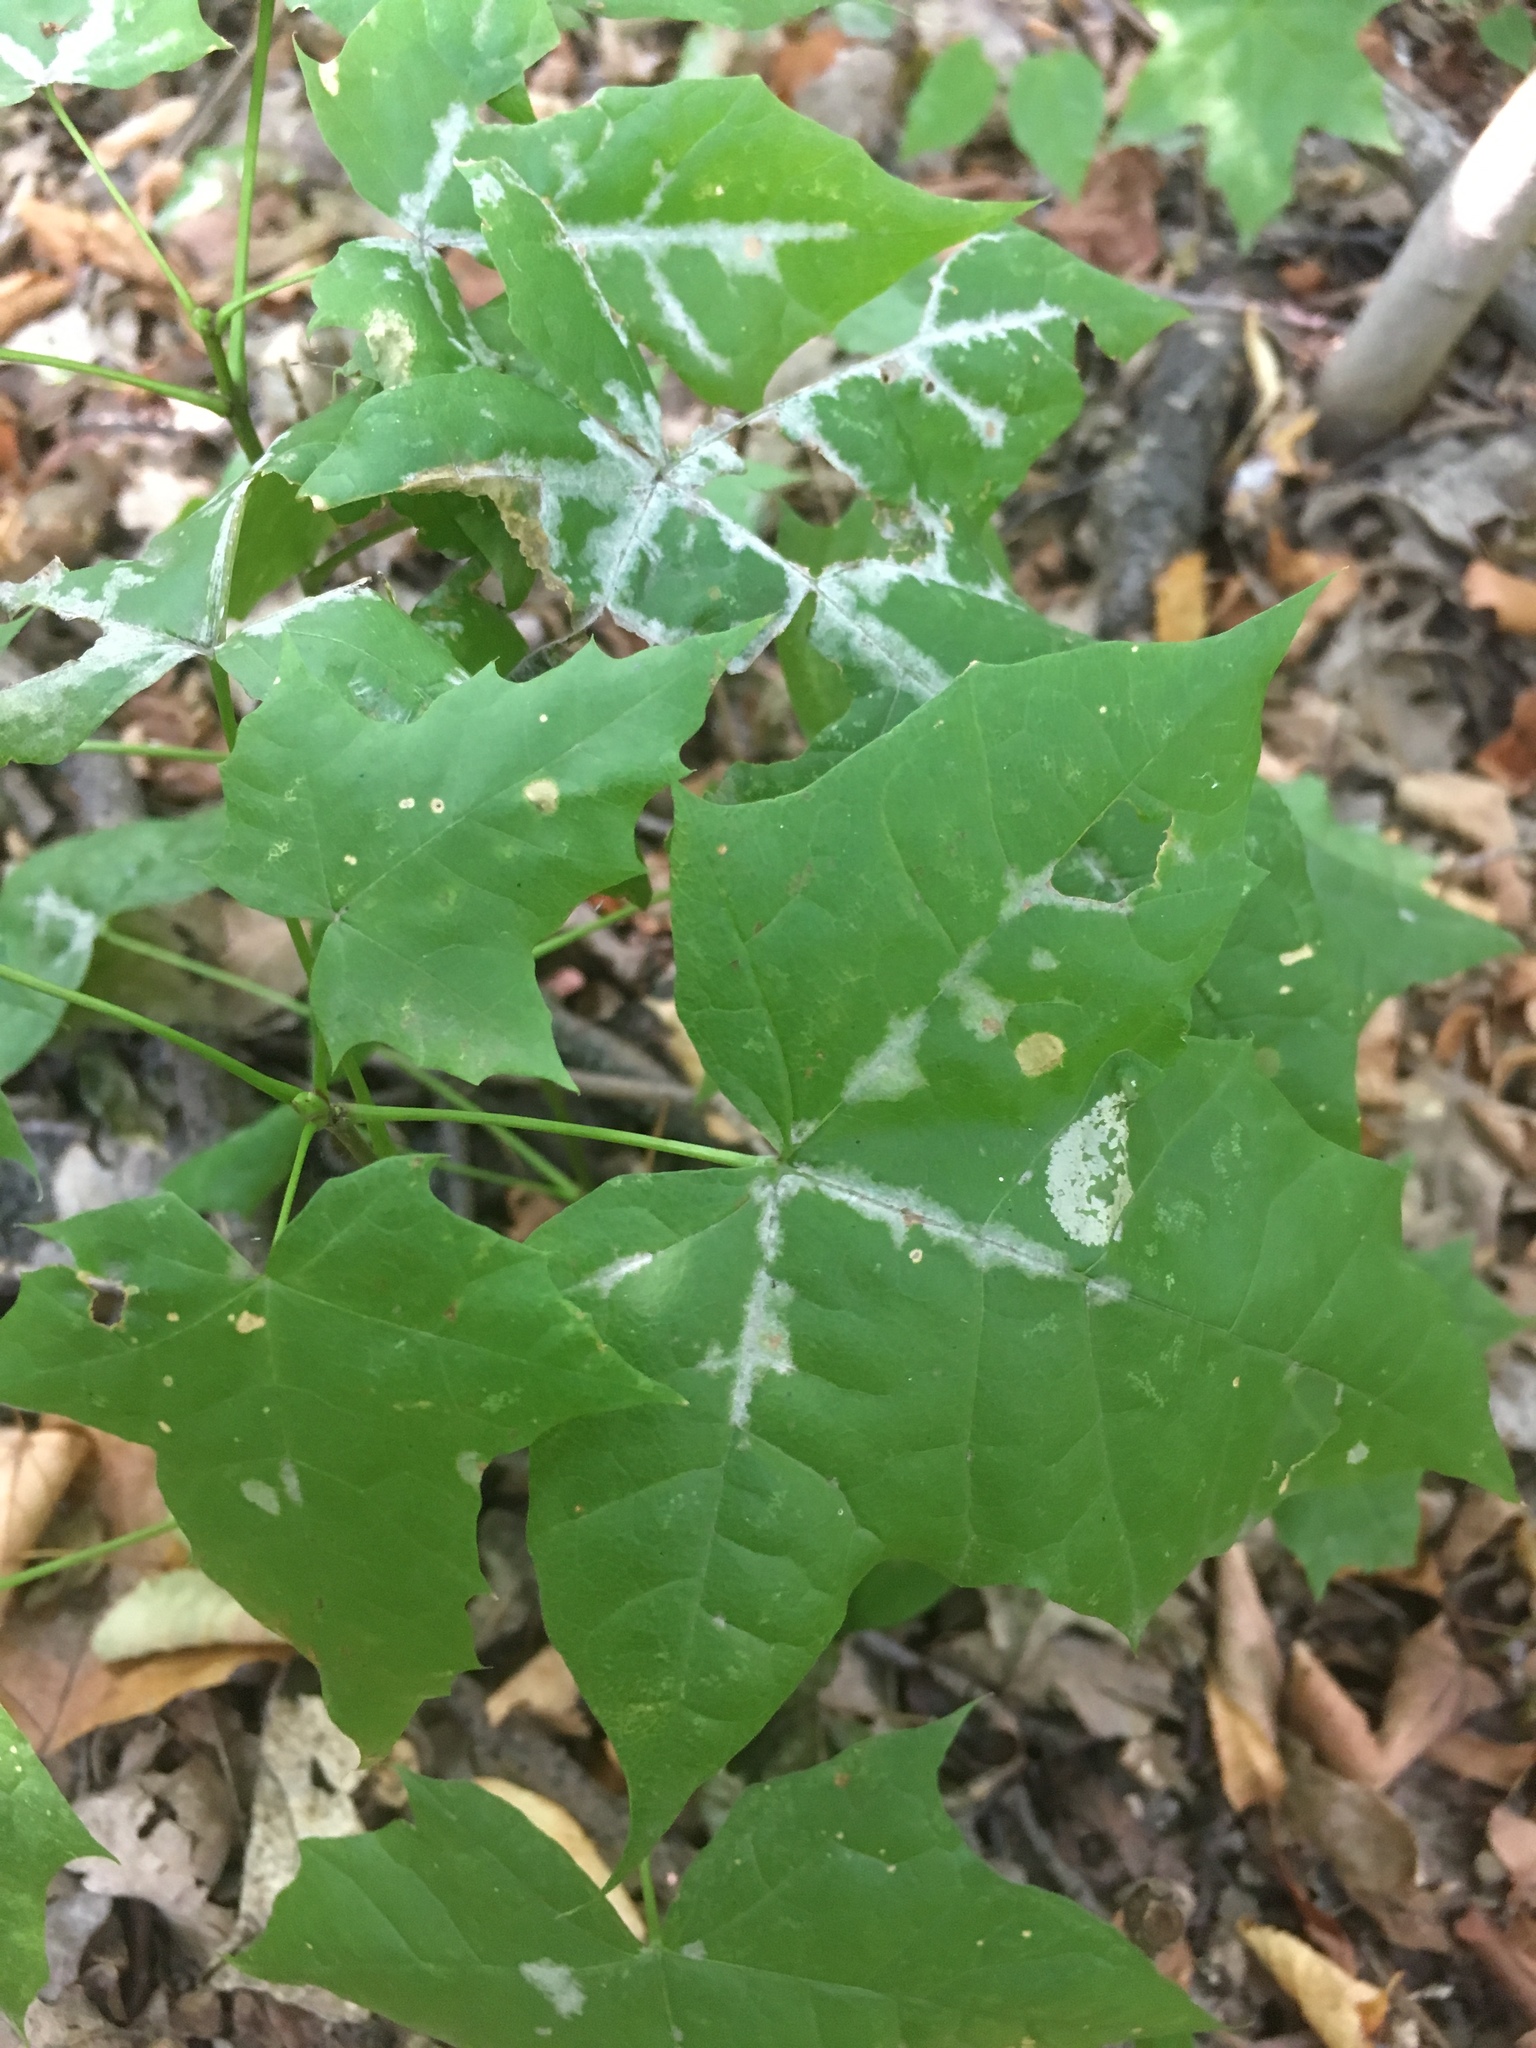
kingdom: Plantae
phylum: Tracheophyta
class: Magnoliopsida
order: Sapindales
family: Sapindaceae
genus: Acer
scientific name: Acer platanoides
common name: Norway maple
